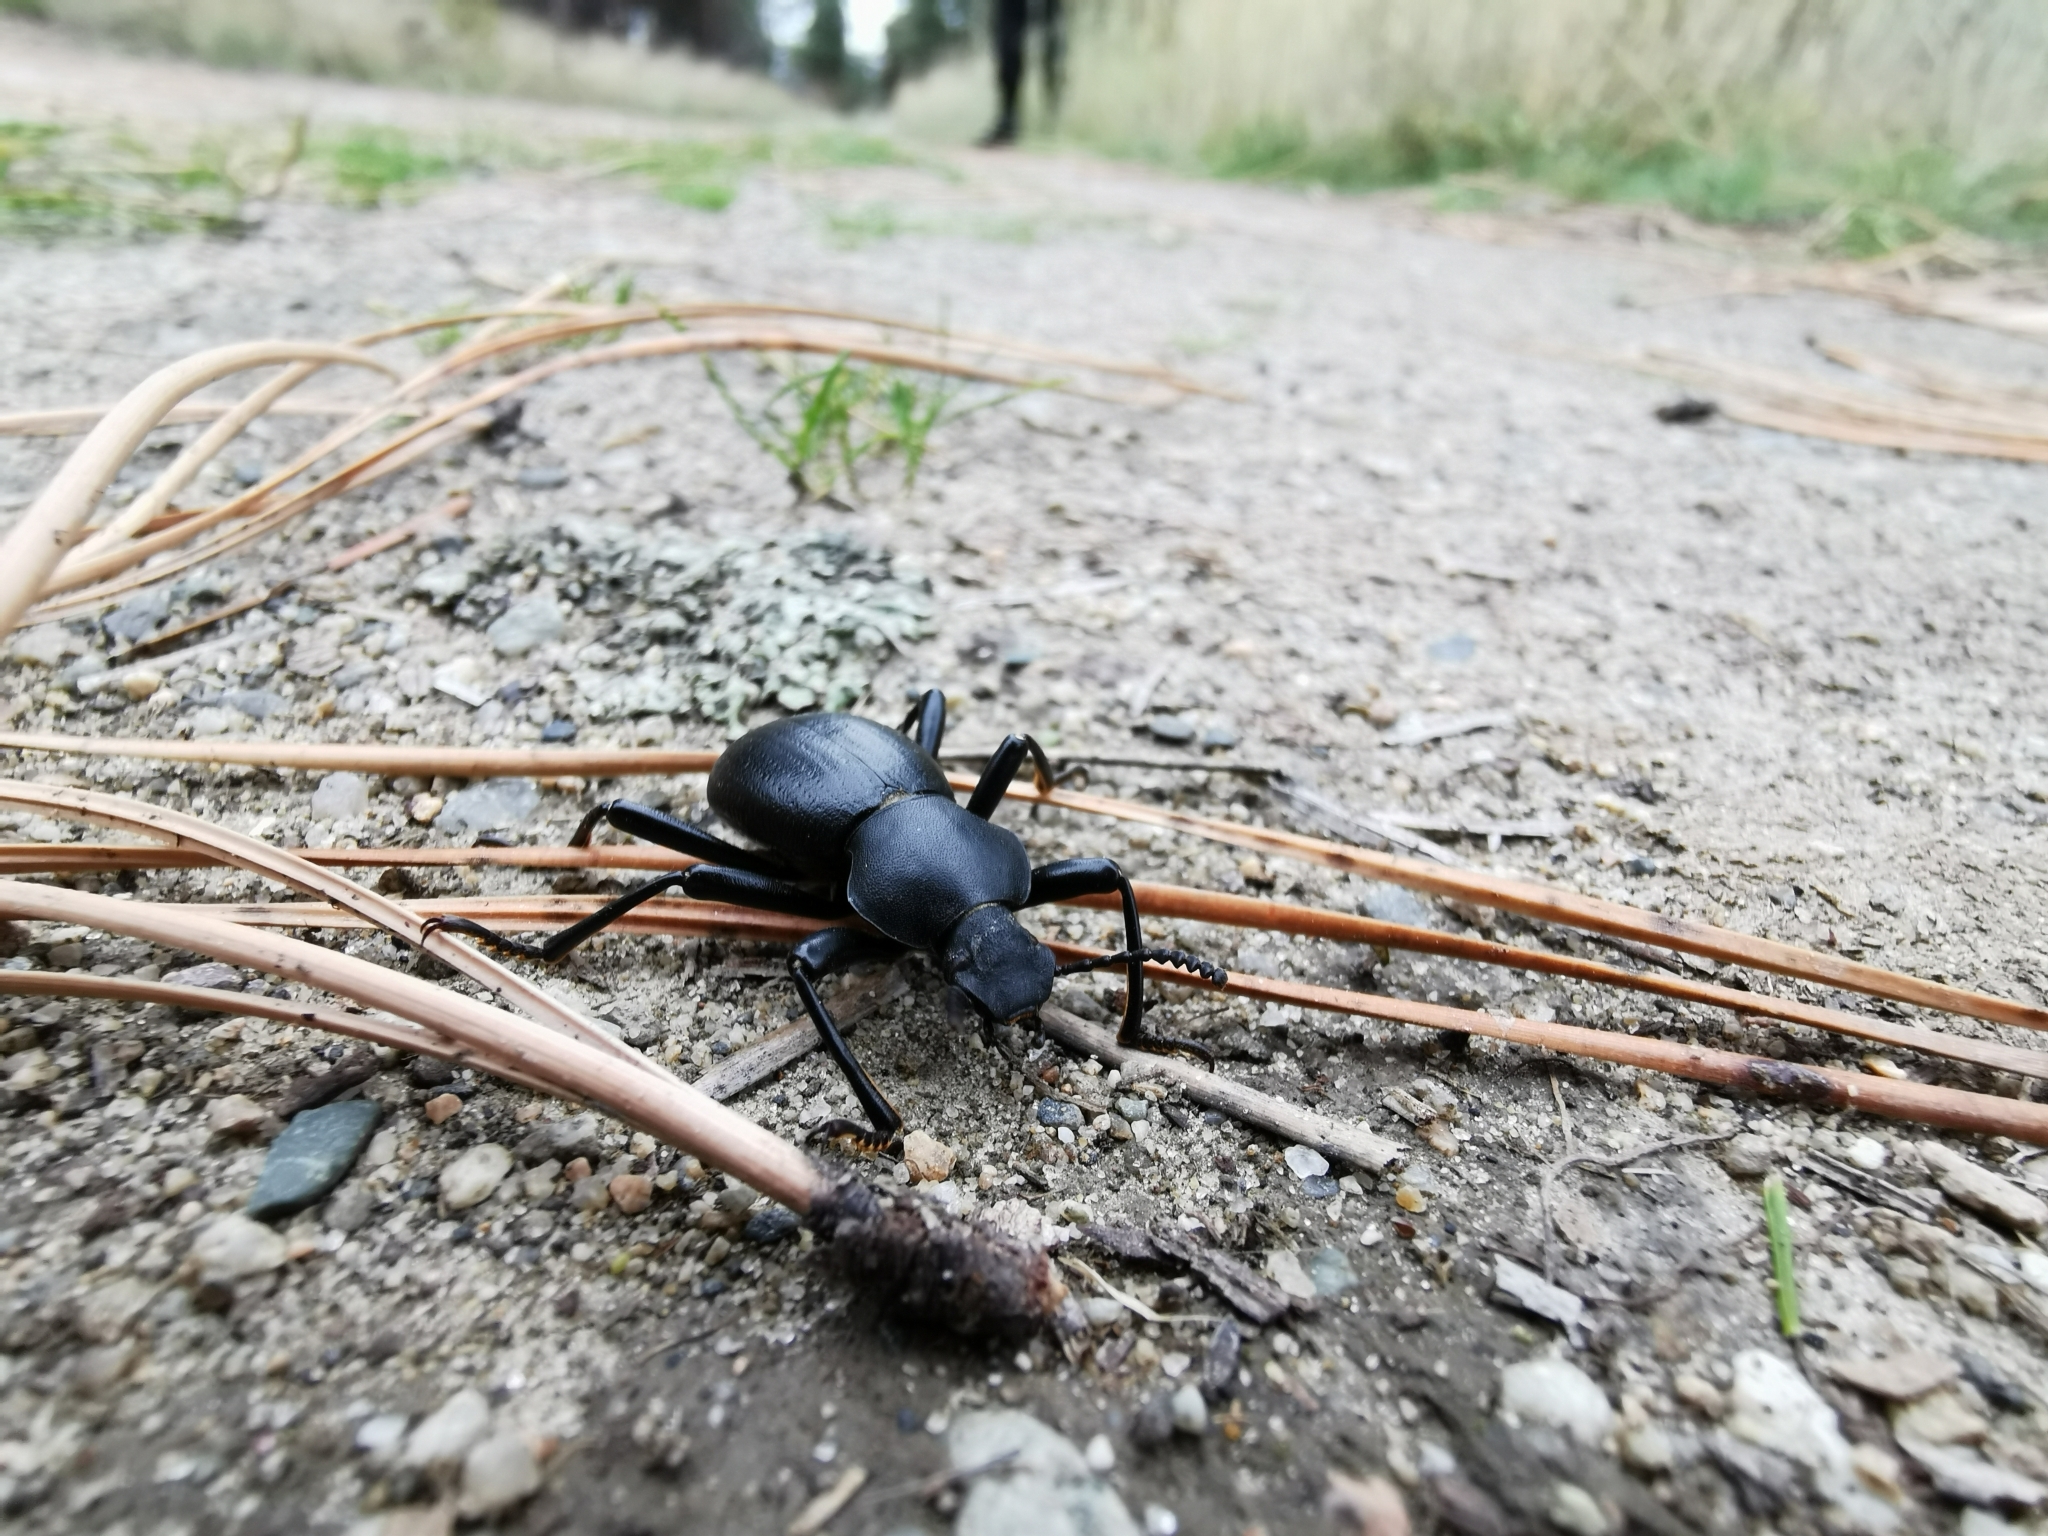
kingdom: Animalia
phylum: Arthropoda
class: Insecta
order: Coleoptera
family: Tenebrionidae
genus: Coelocnemis
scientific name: Coelocnemis dilaticollis
